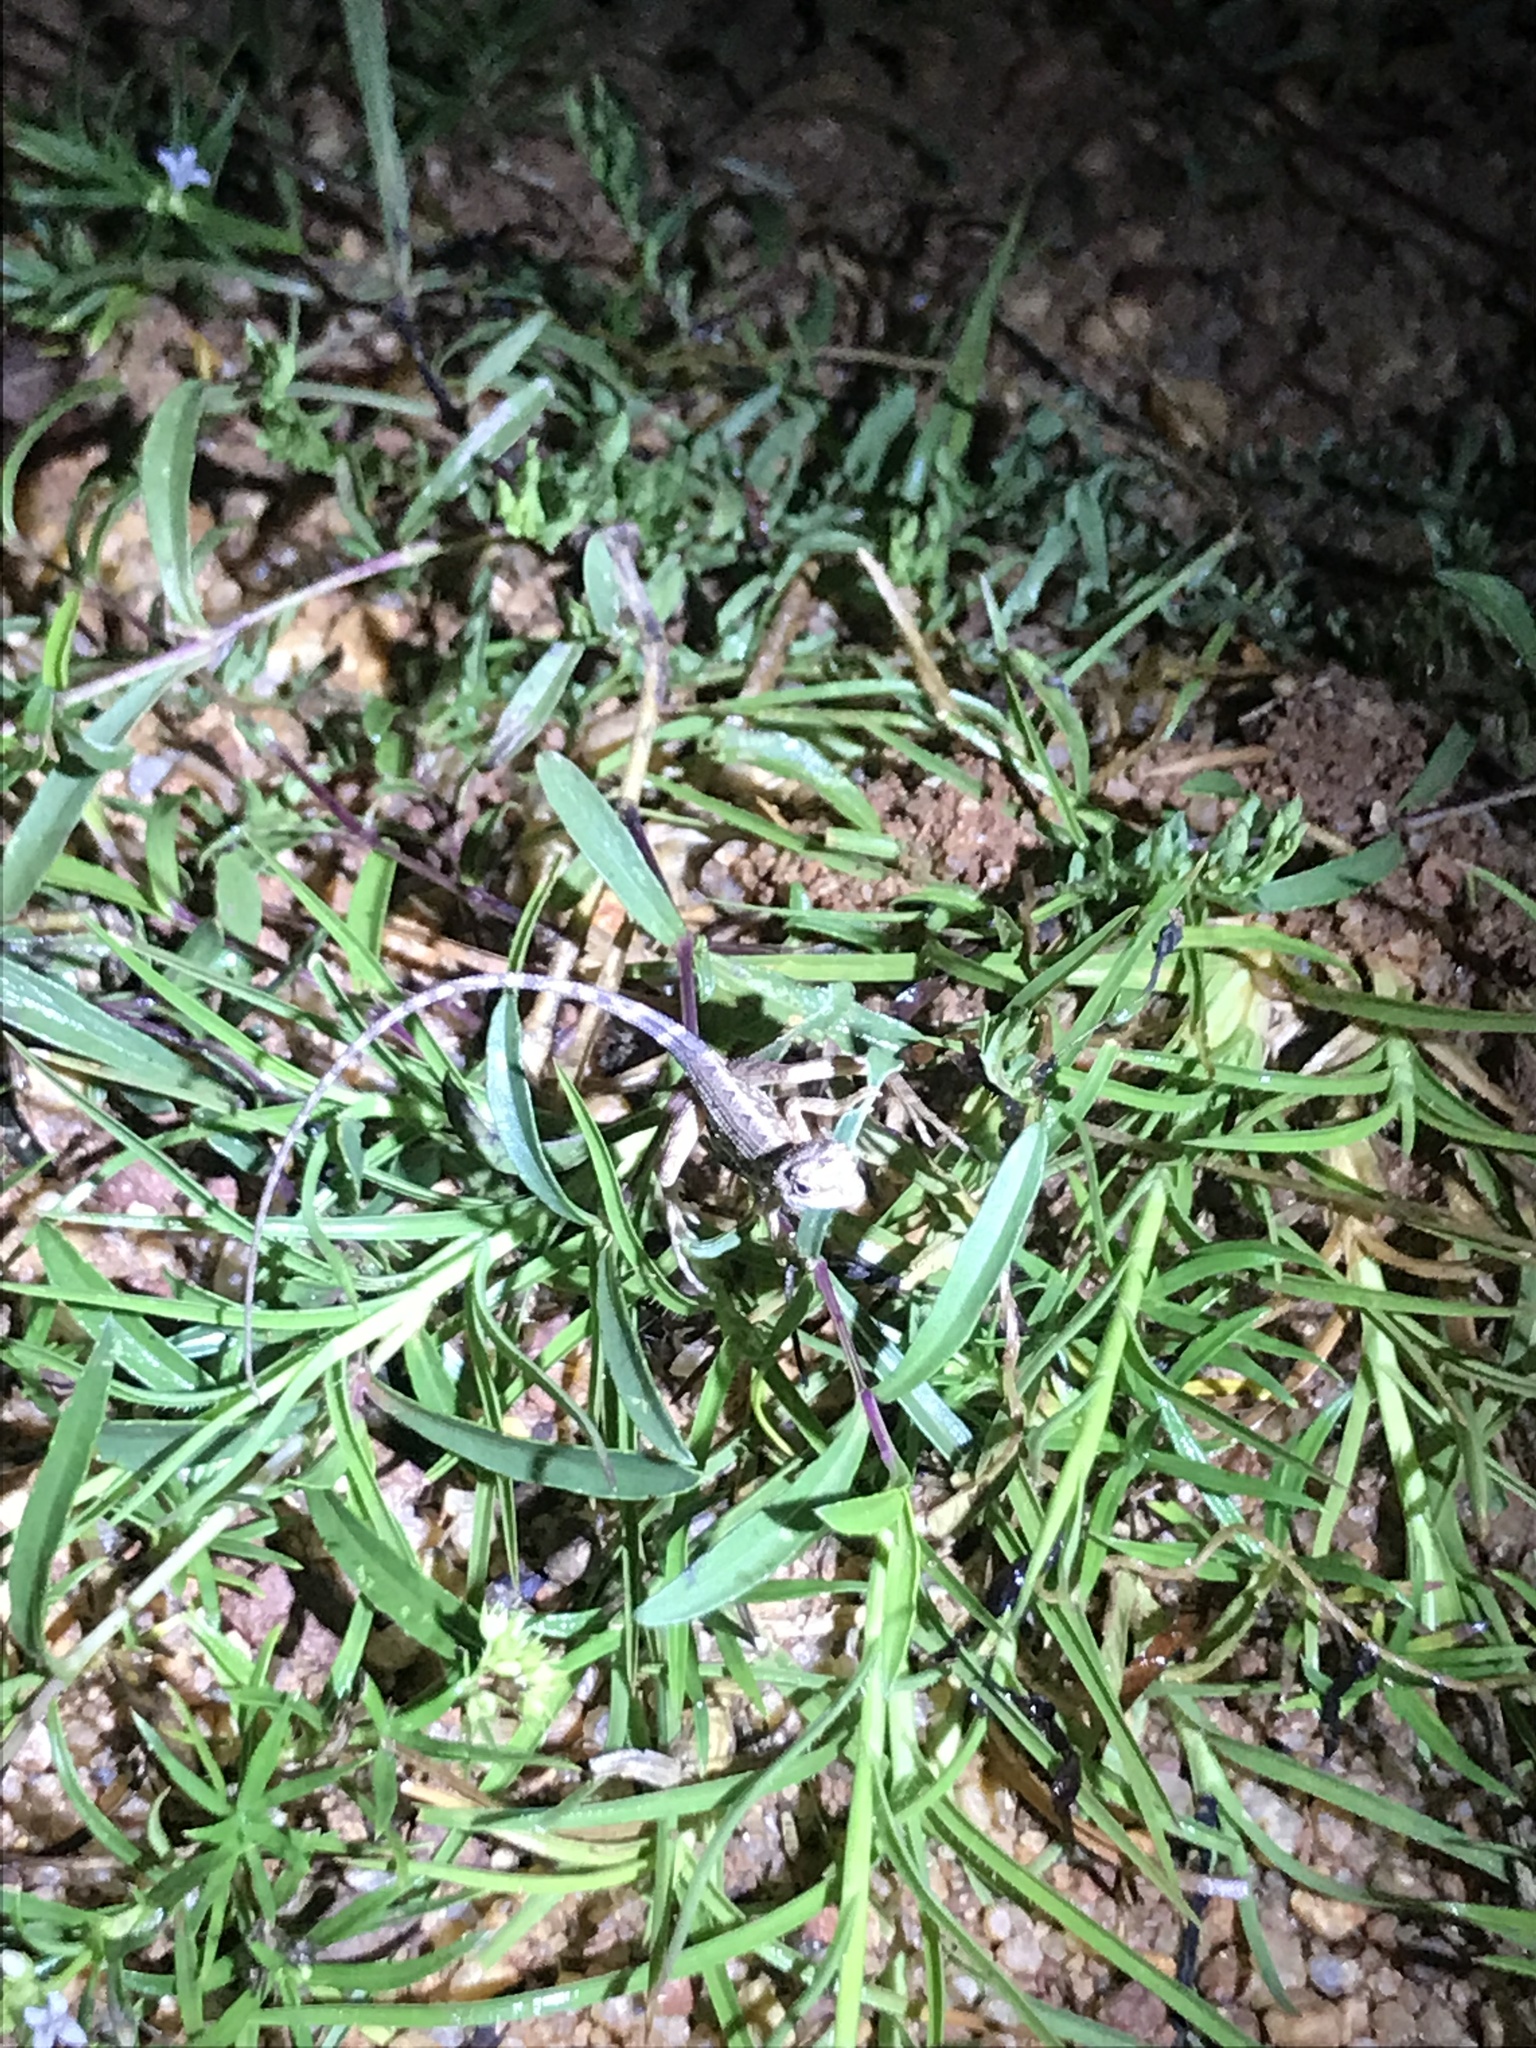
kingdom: Animalia
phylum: Chordata
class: Squamata
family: Agamidae
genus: Sitana
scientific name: Sitana ponticeriana
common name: Pondichéry fan throated lizard
